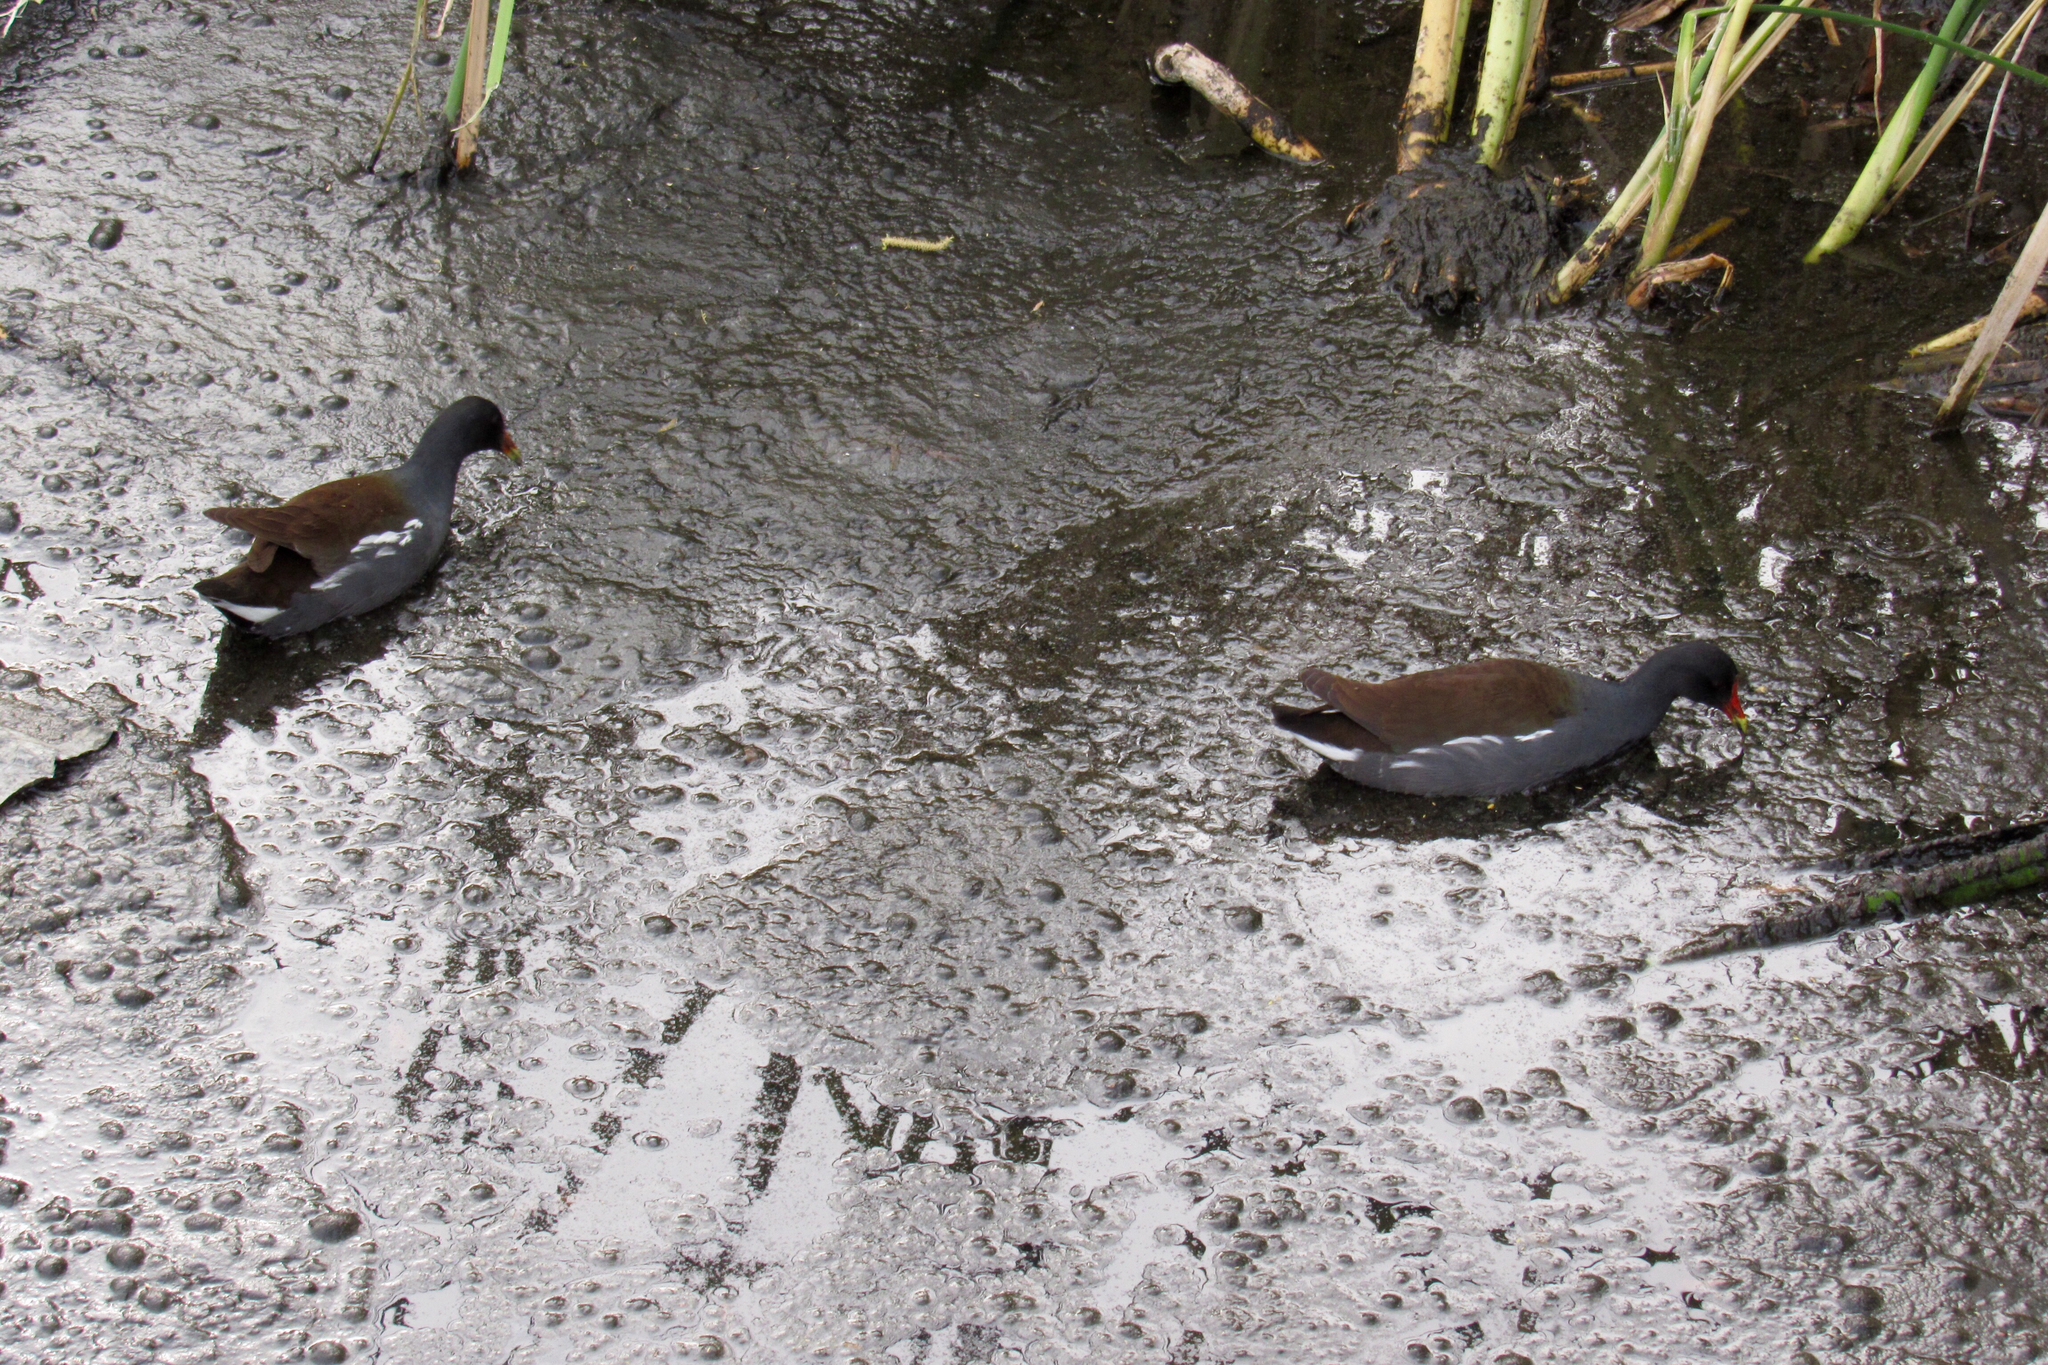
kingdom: Animalia
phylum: Chordata
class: Aves
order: Gruiformes
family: Rallidae
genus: Gallinula
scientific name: Gallinula chloropus
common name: Common moorhen
